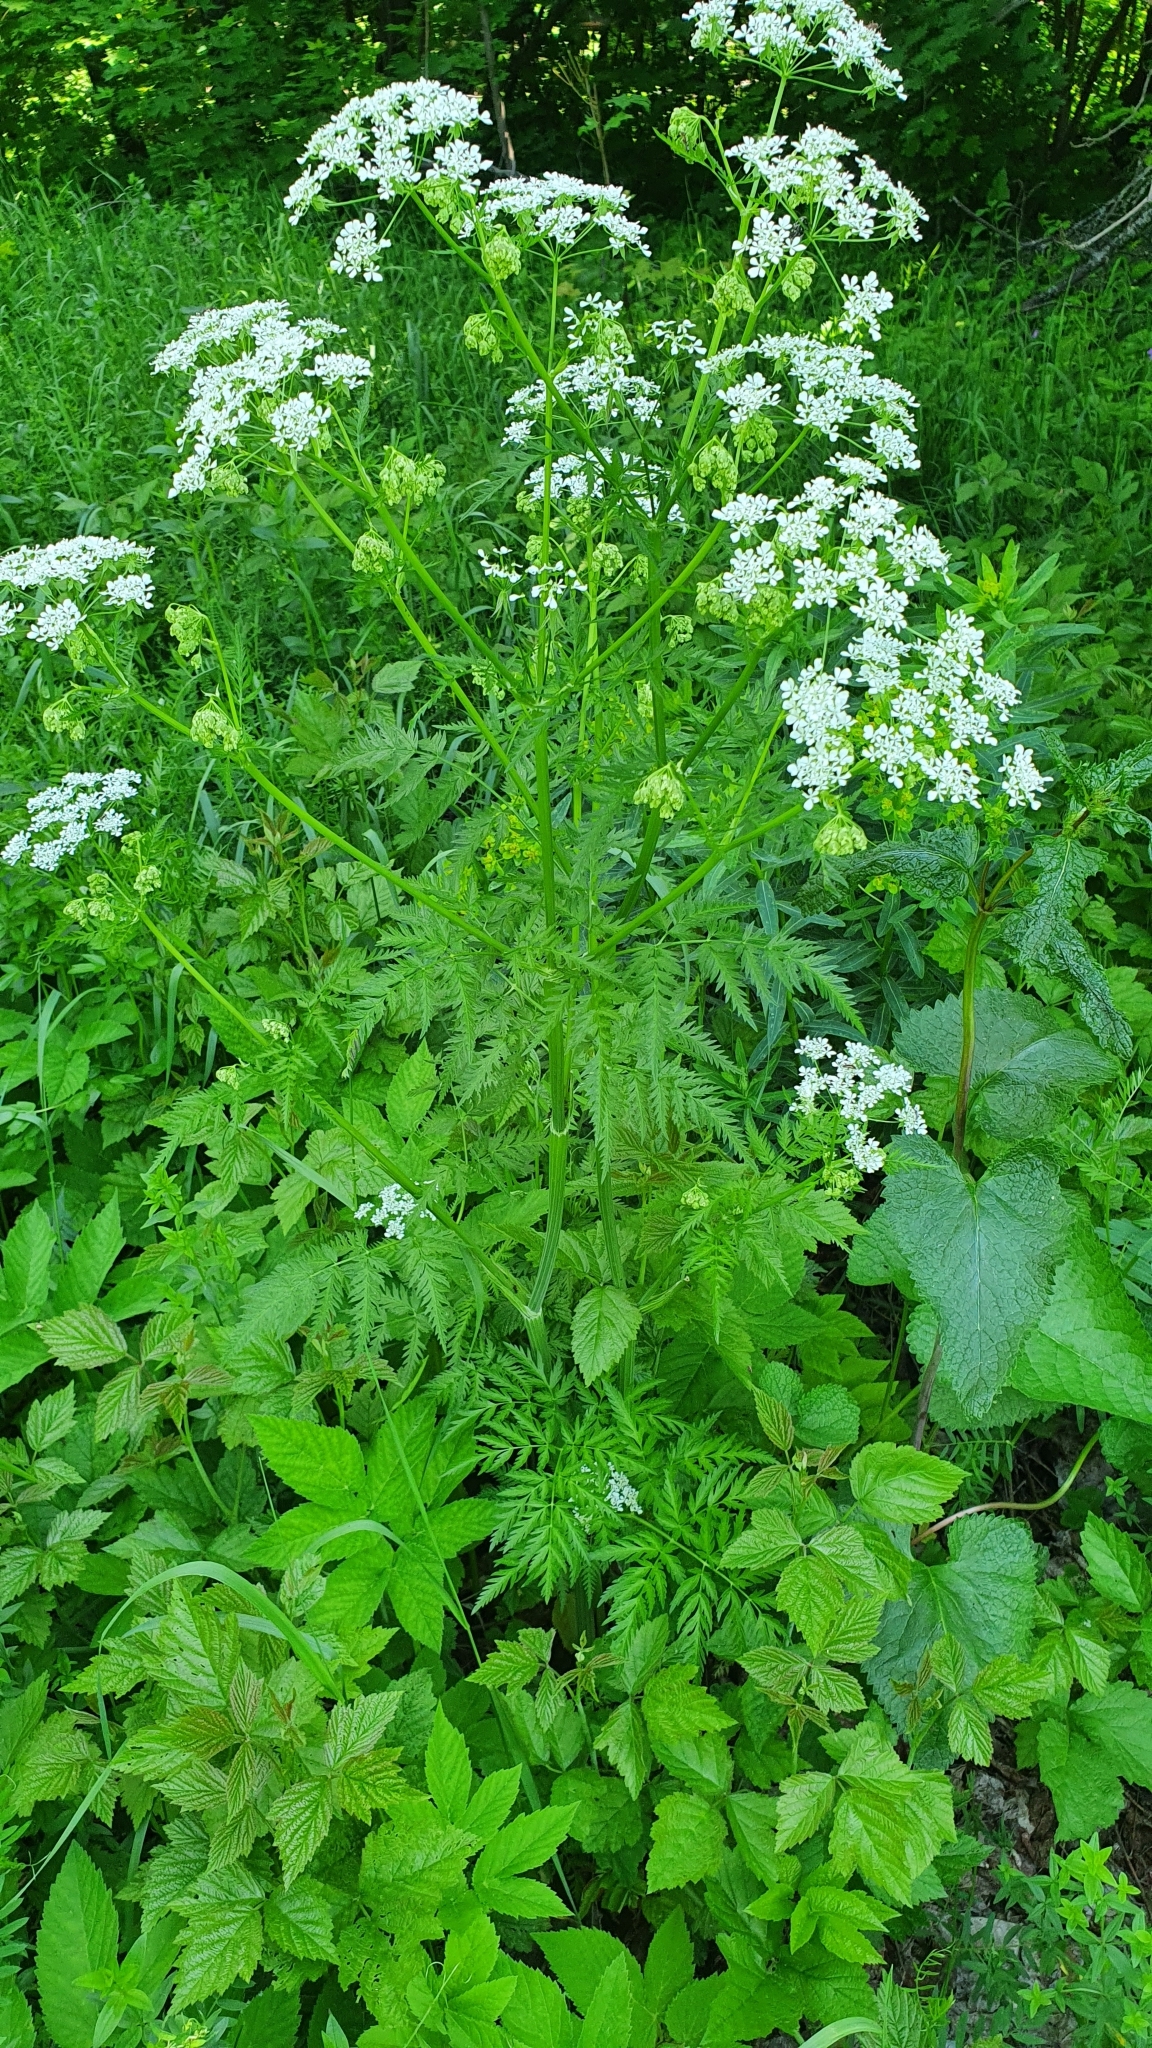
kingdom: Plantae
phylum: Tracheophyta
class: Magnoliopsida
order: Apiales
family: Apiaceae
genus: Anthriscus
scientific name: Anthriscus sylvestris
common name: Cow parsley
